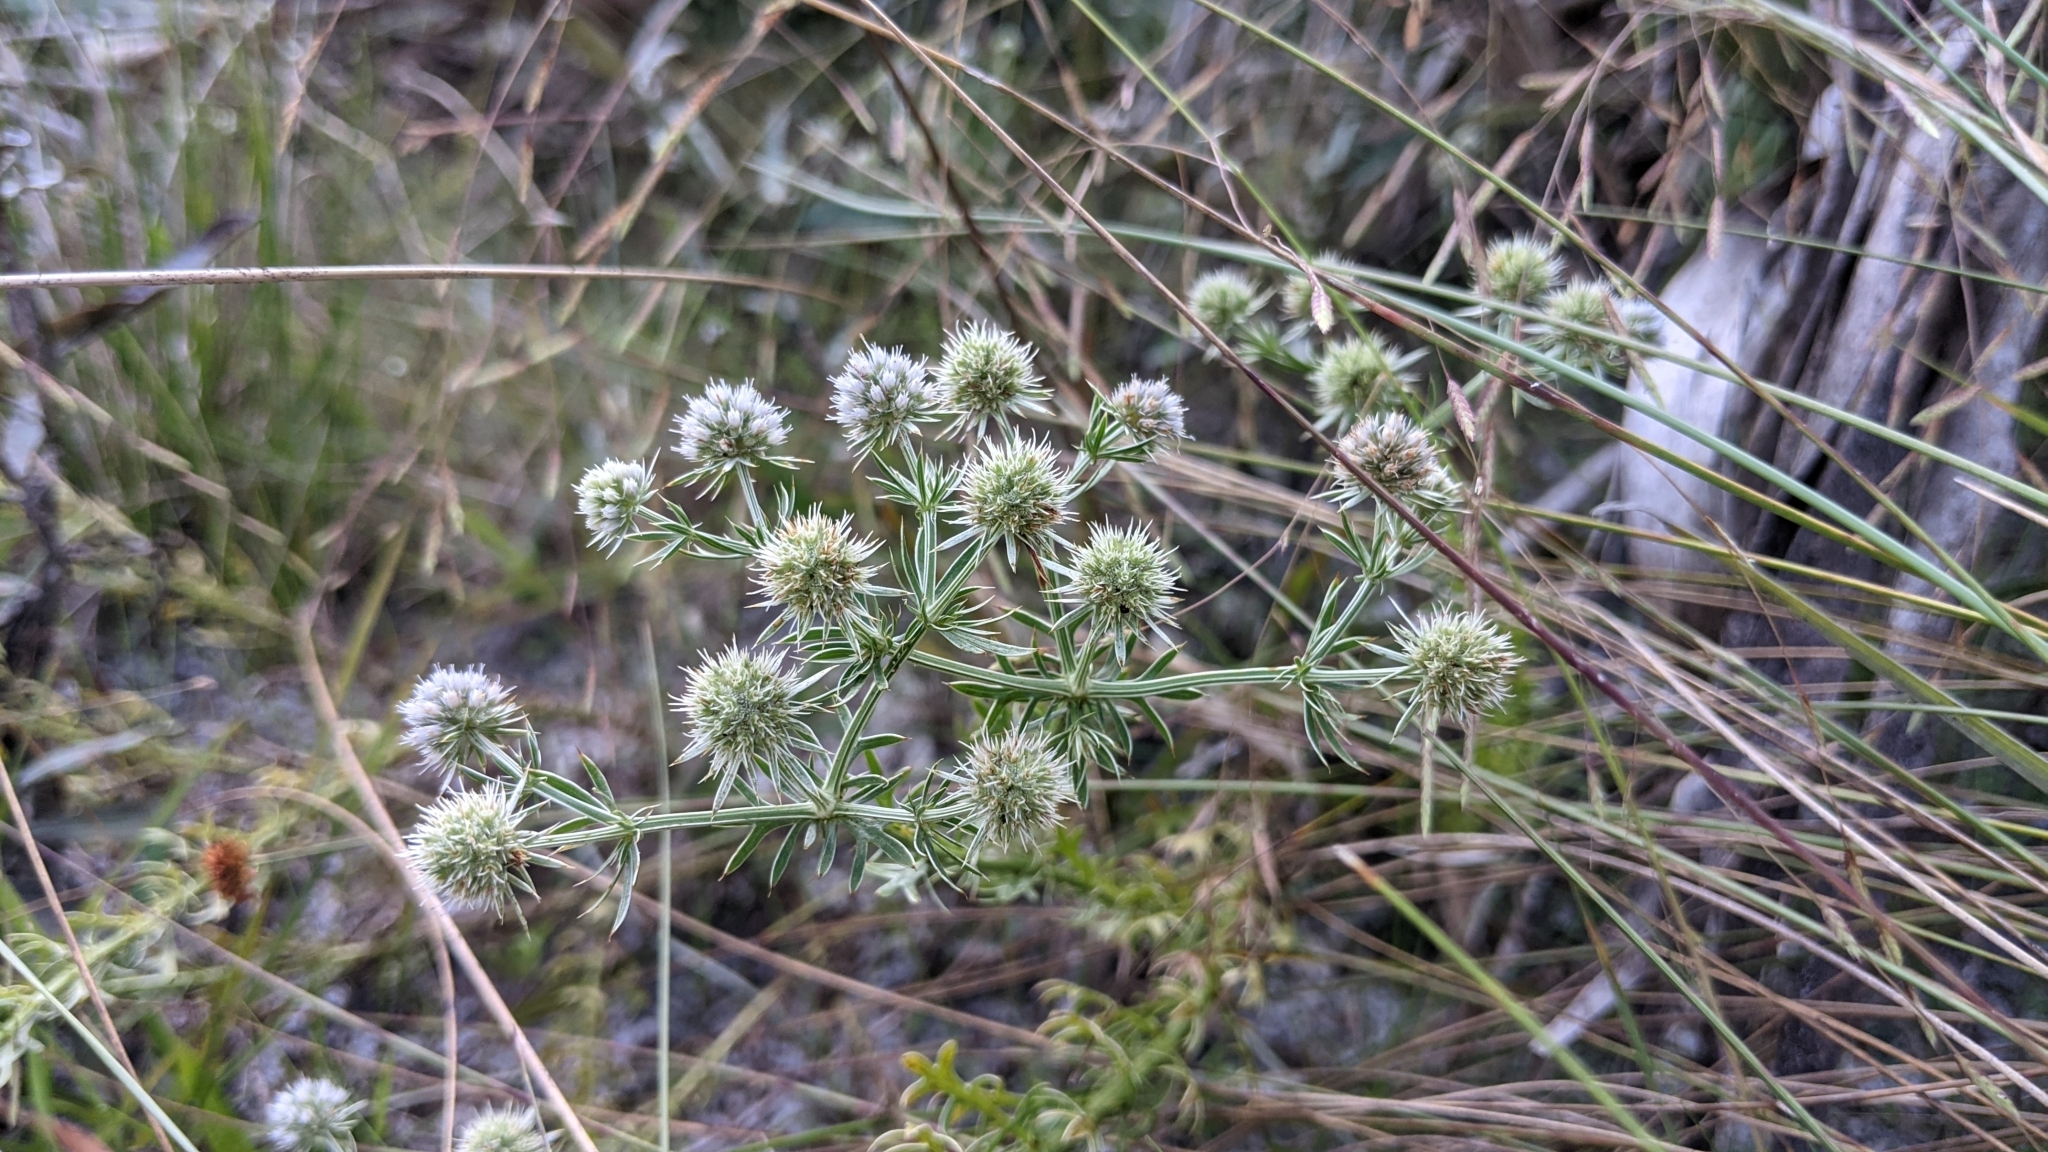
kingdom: Plantae
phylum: Tracheophyta
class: Magnoliopsida
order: Apiales
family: Apiaceae
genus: Eryngium
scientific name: Eryngium aromaticum
